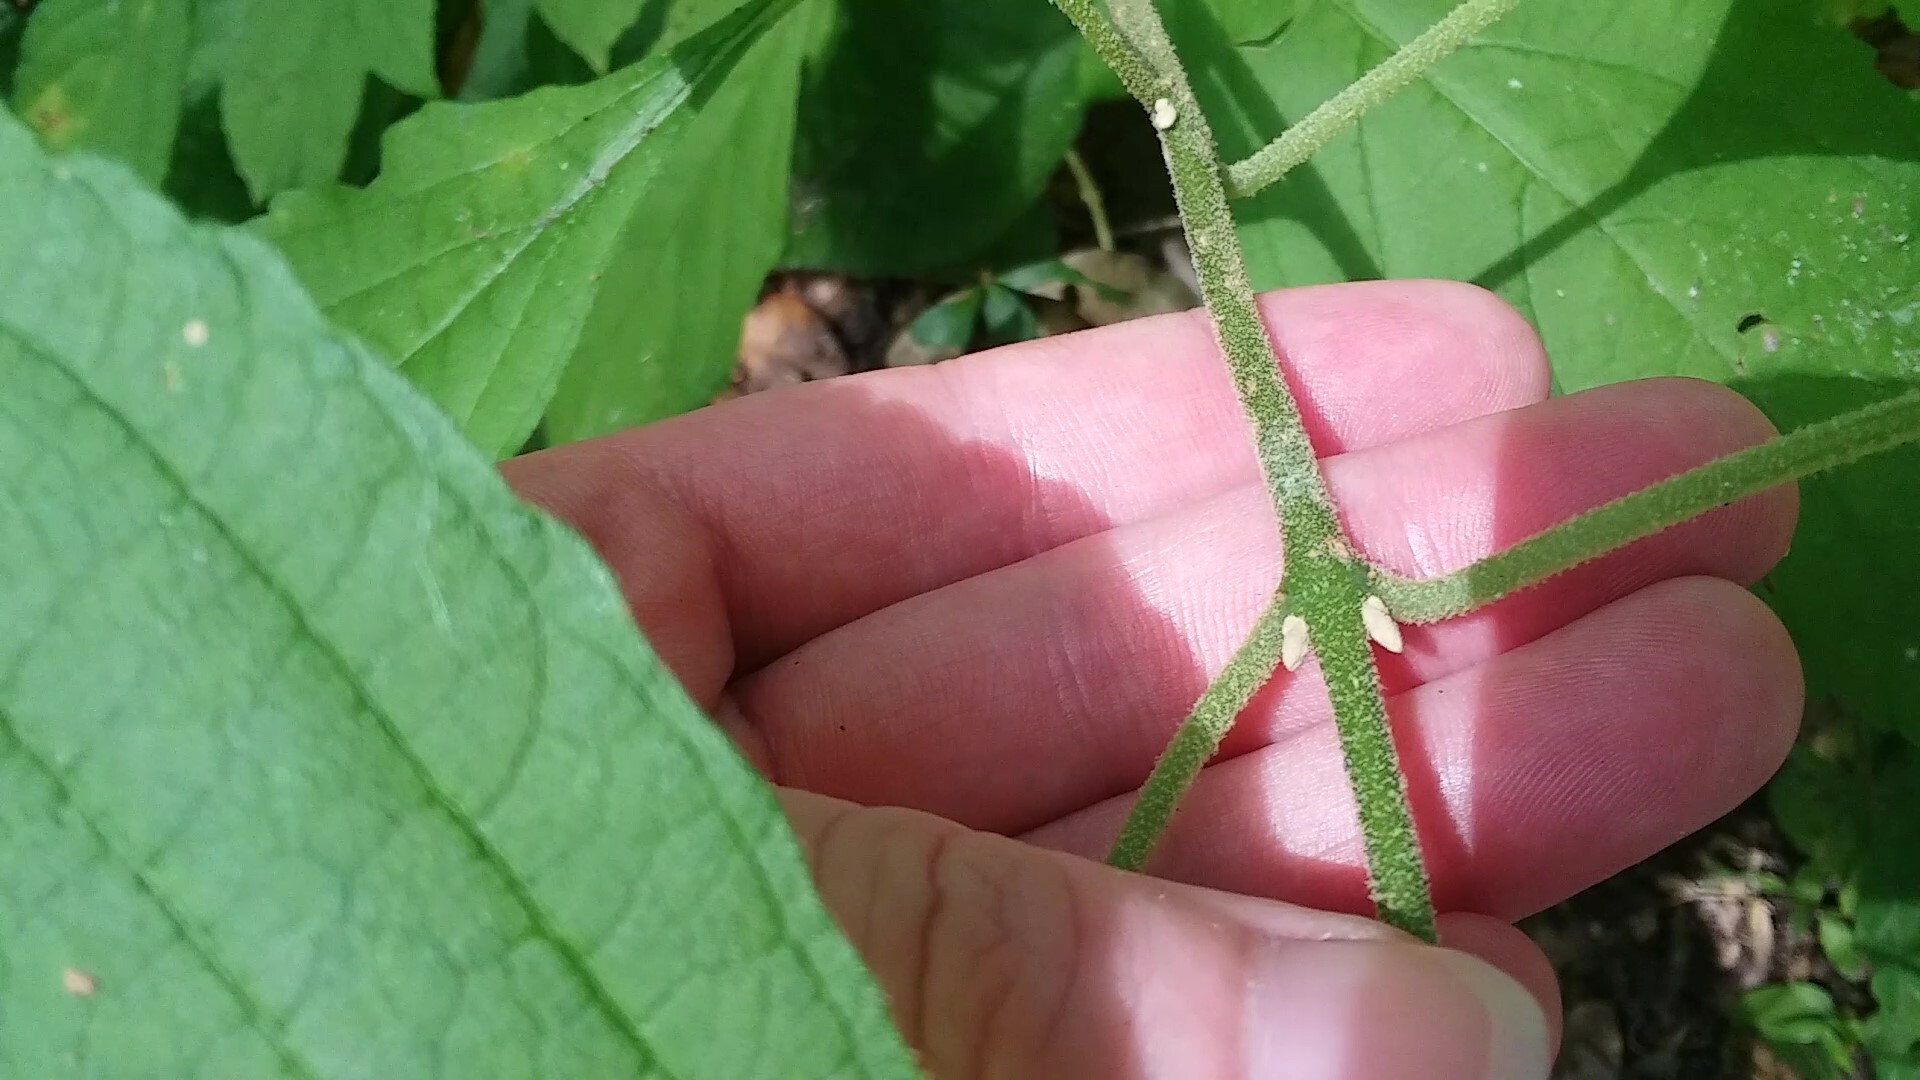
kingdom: Plantae
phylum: Tracheophyta
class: Magnoliopsida
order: Lamiales
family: Lamiaceae
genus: Callicarpa
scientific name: Callicarpa americana
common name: American beautyberry
